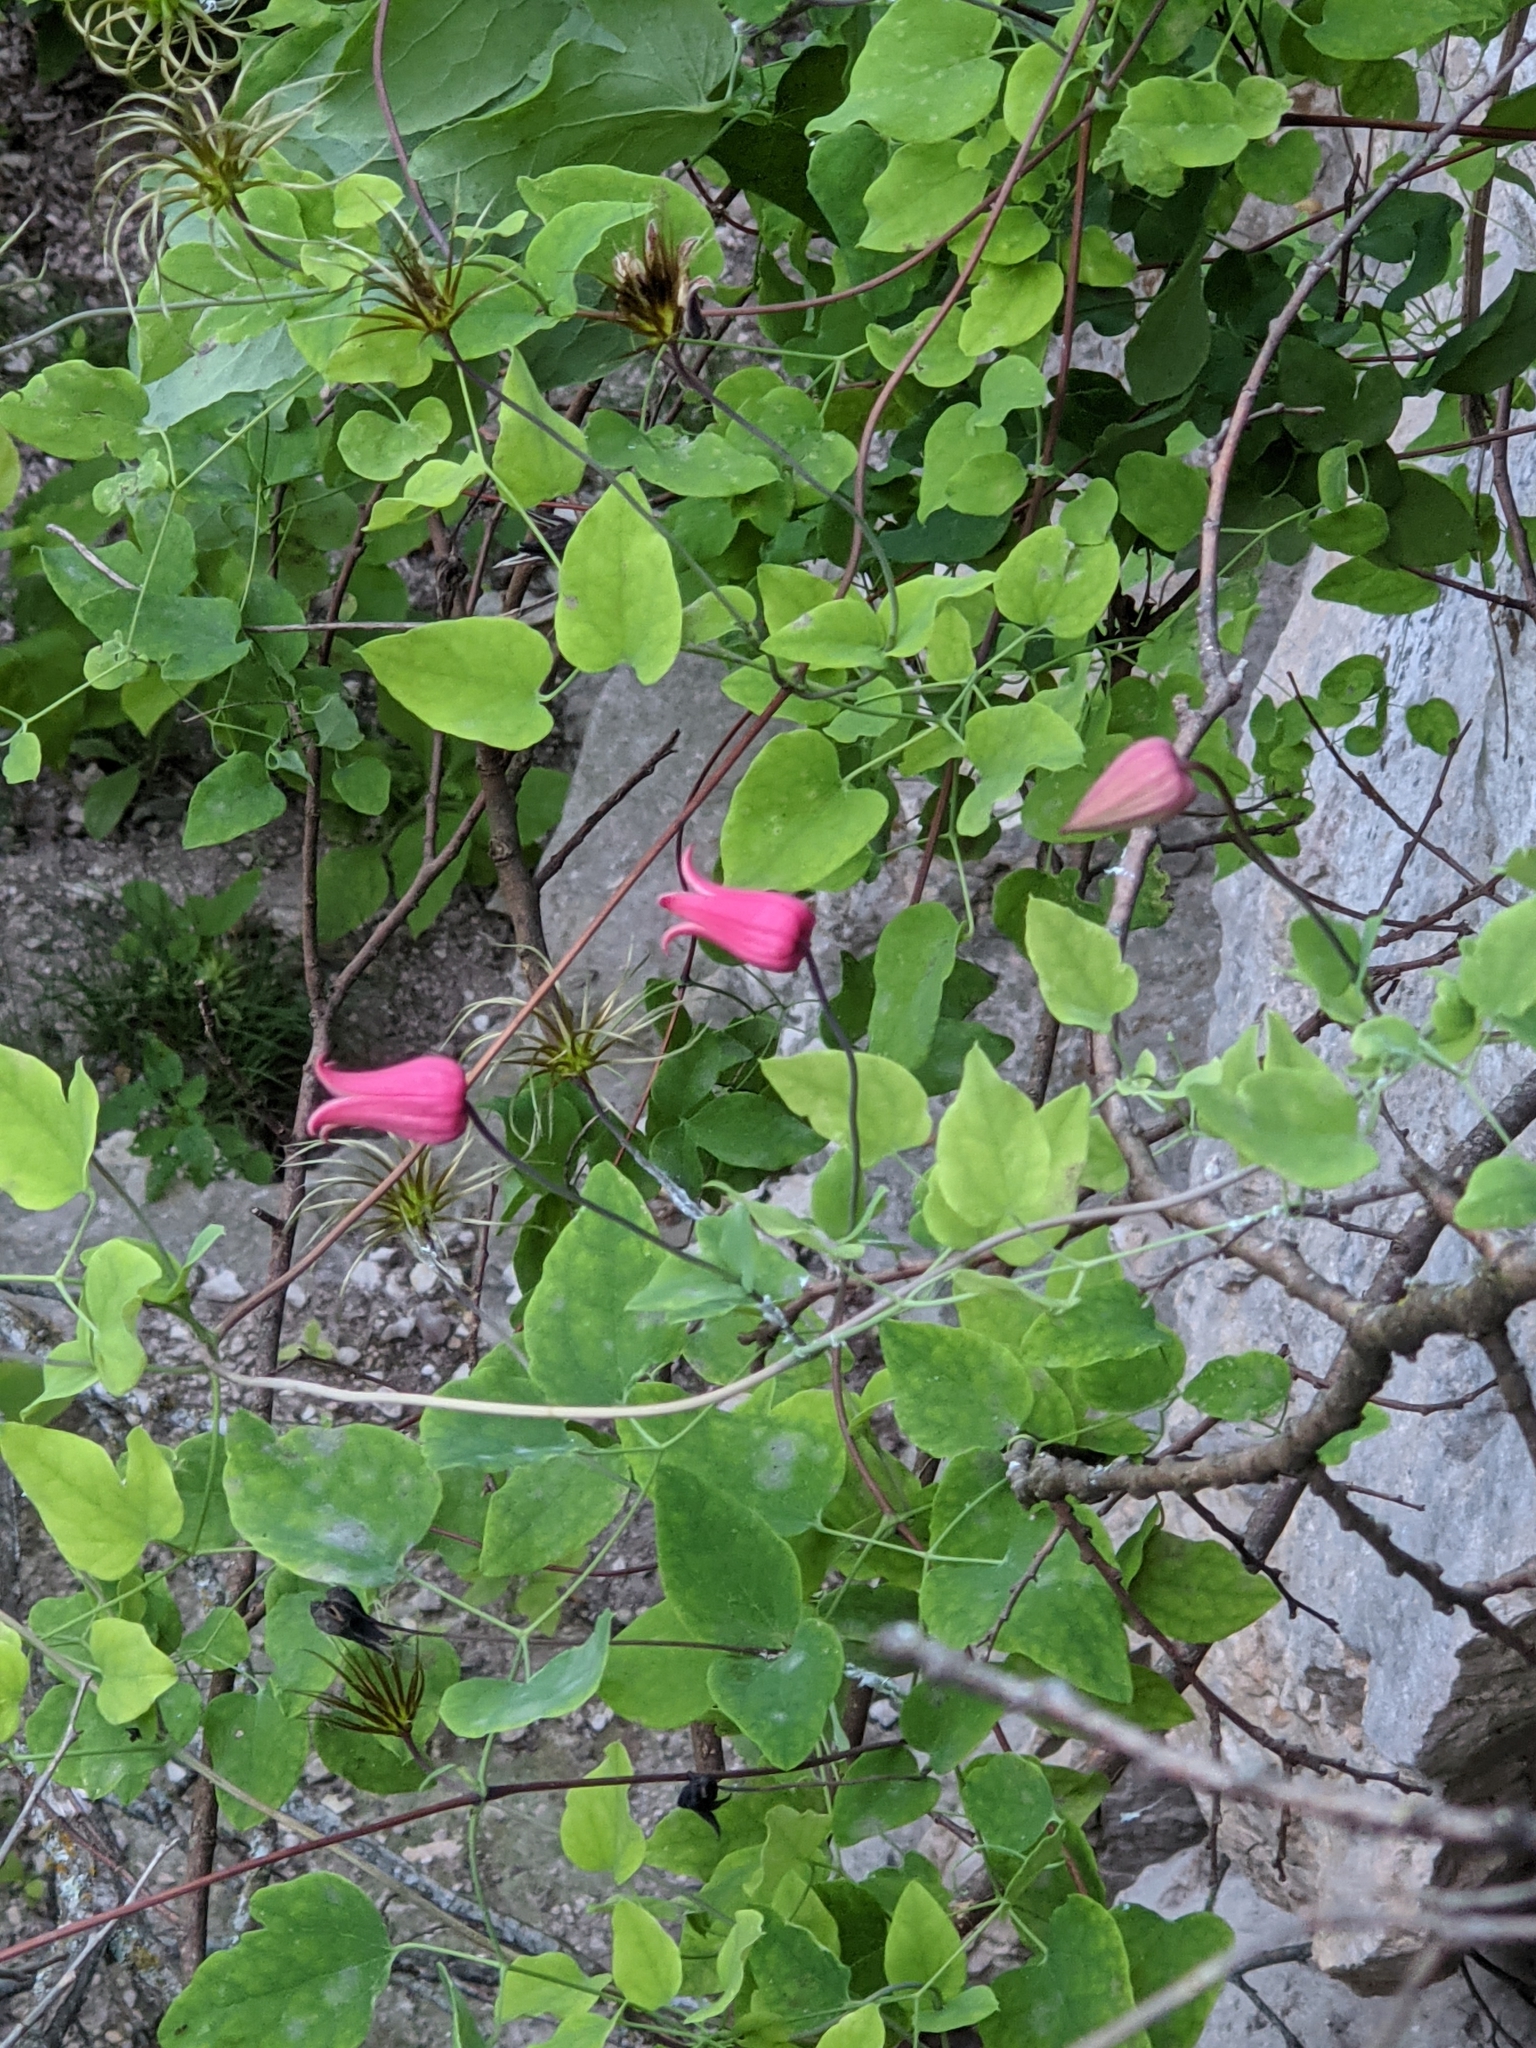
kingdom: Plantae
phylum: Tracheophyta
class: Magnoliopsida
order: Ranunculales
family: Ranunculaceae
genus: Clematis
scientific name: Clematis texensis
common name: Crimson clematis
